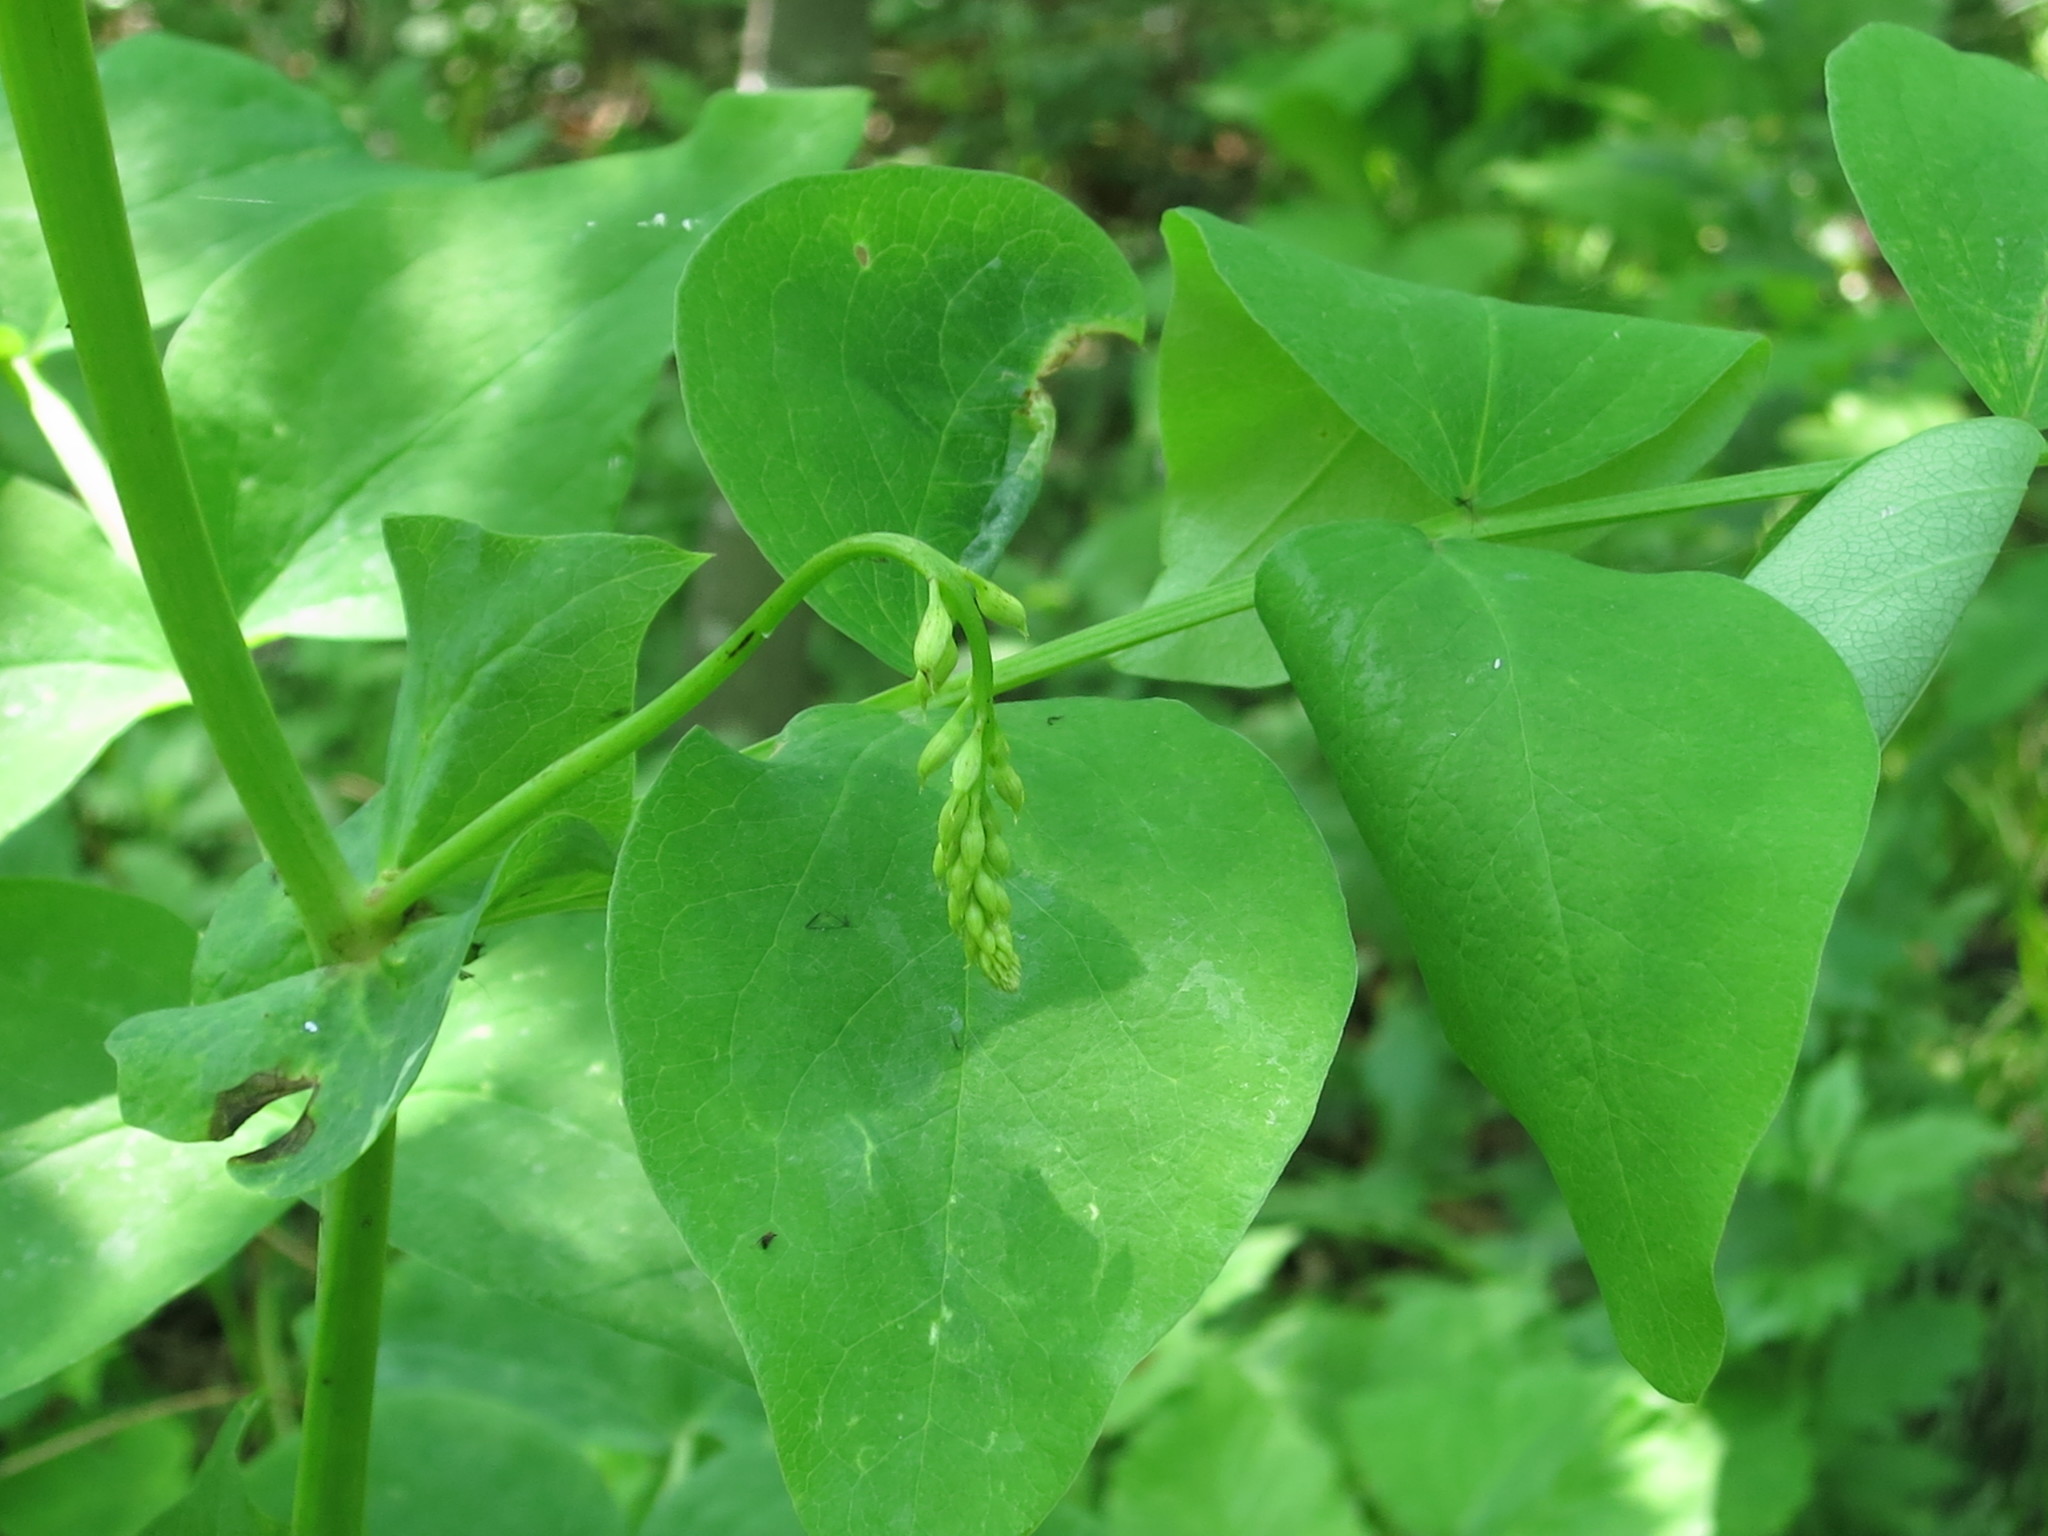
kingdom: Plantae
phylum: Tracheophyta
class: Magnoliopsida
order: Fabales
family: Fabaceae
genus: Lathyrus
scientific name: Lathyrus davidii
